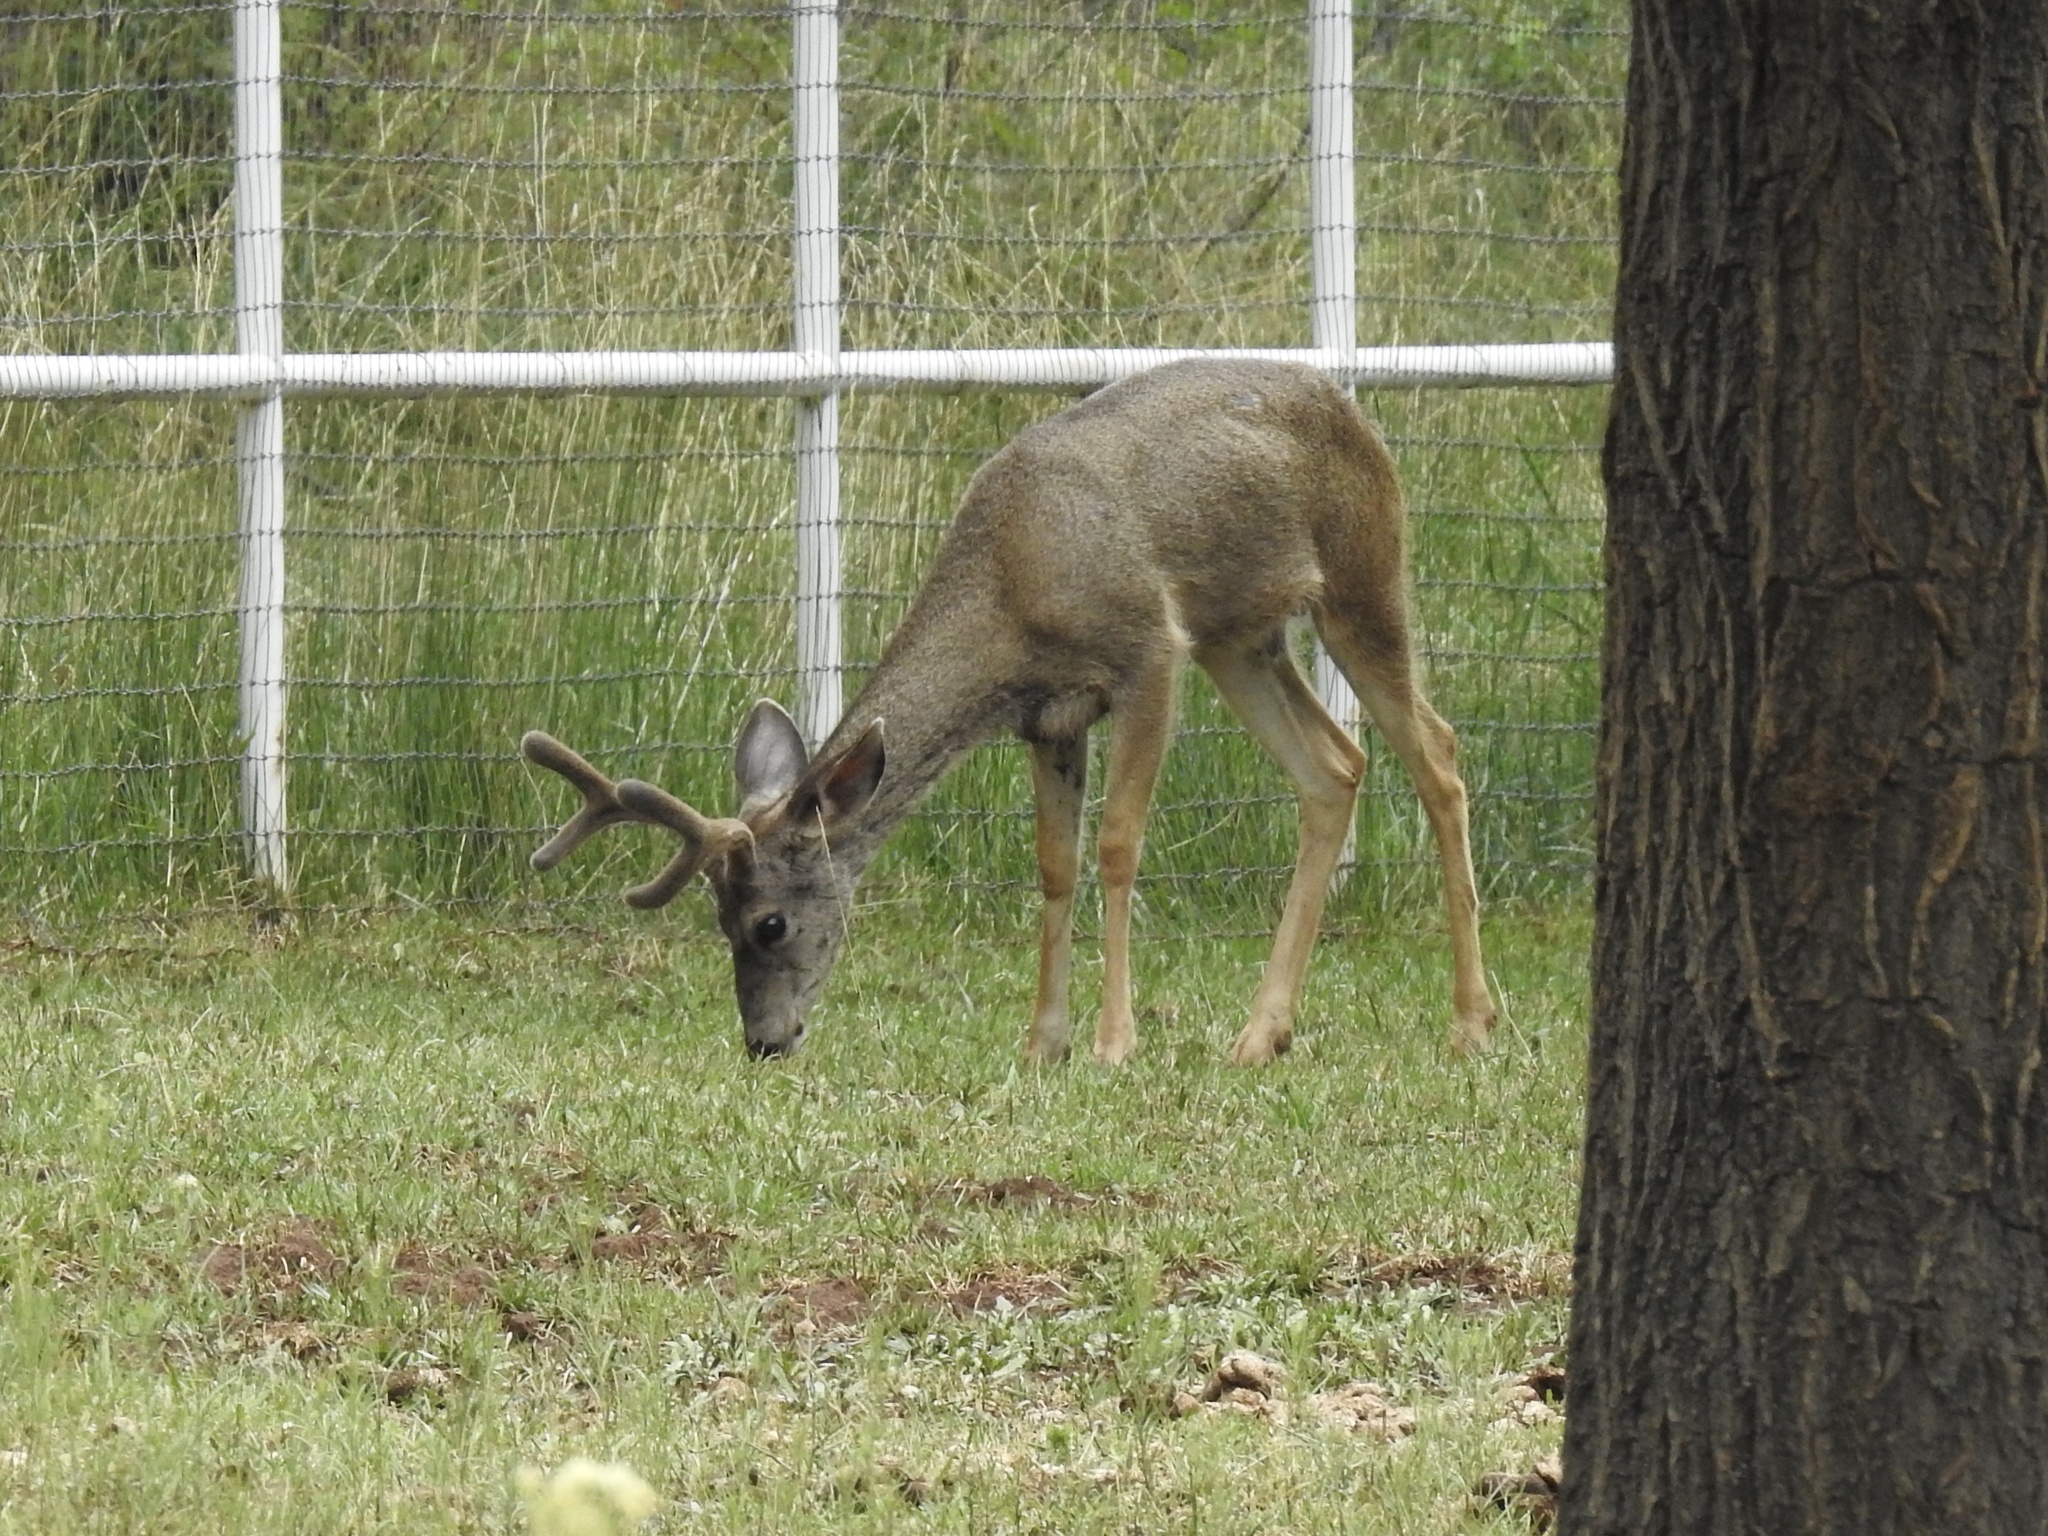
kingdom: Animalia
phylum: Chordata
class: Mammalia
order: Artiodactyla
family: Cervidae
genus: Odocoileus
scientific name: Odocoileus hemionus
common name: Mule deer
